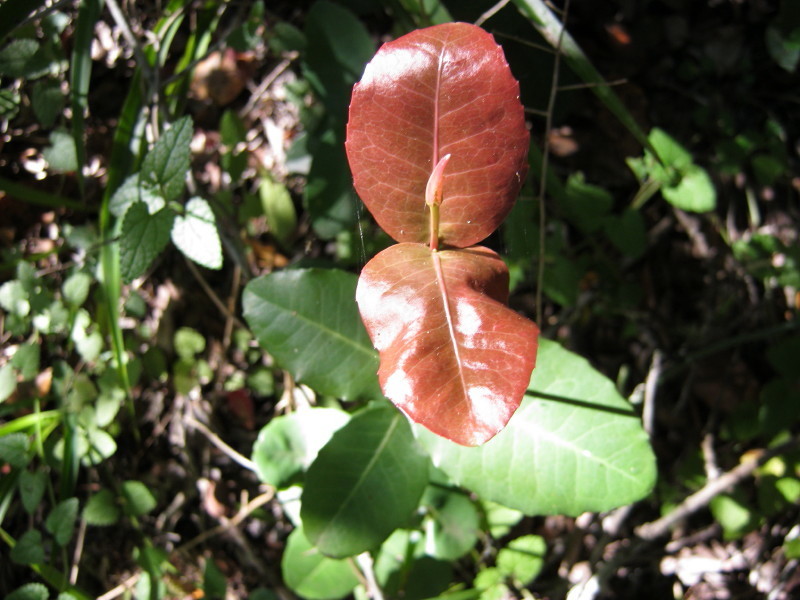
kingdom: Plantae
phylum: Tracheophyta
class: Magnoliopsida
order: Celastrales
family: Celastraceae
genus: Lauridia
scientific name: Lauridia tetragona
